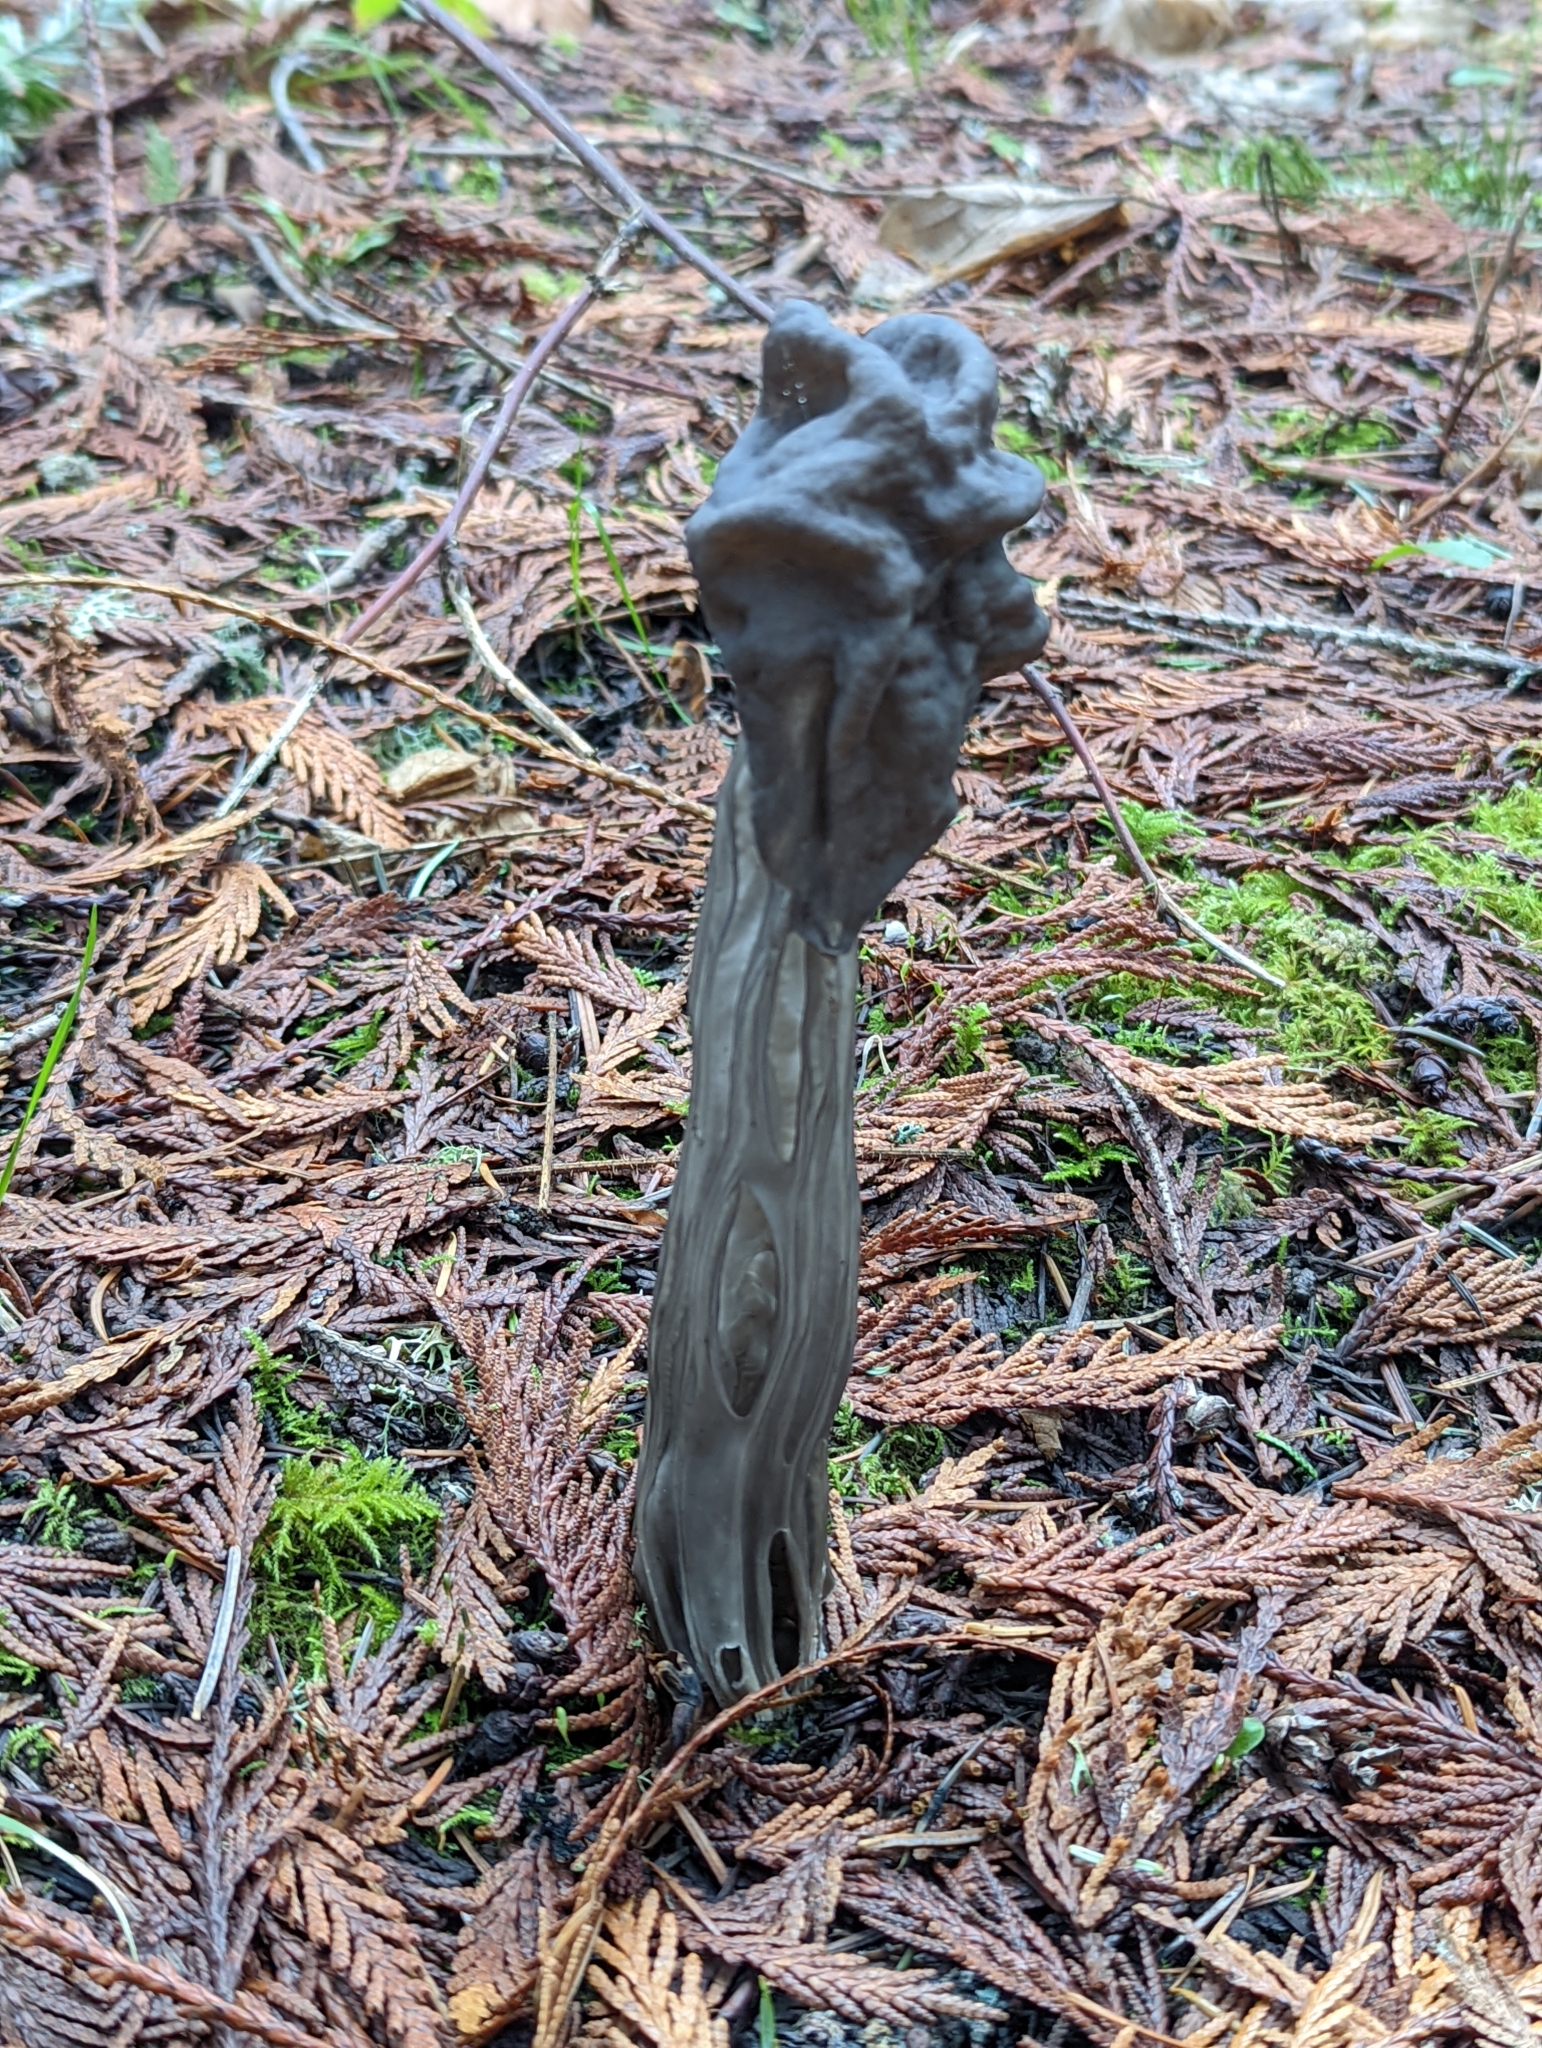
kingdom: Fungi
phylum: Ascomycota
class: Pezizomycetes
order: Pezizales
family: Helvellaceae
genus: Helvella
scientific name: Helvella vespertina
